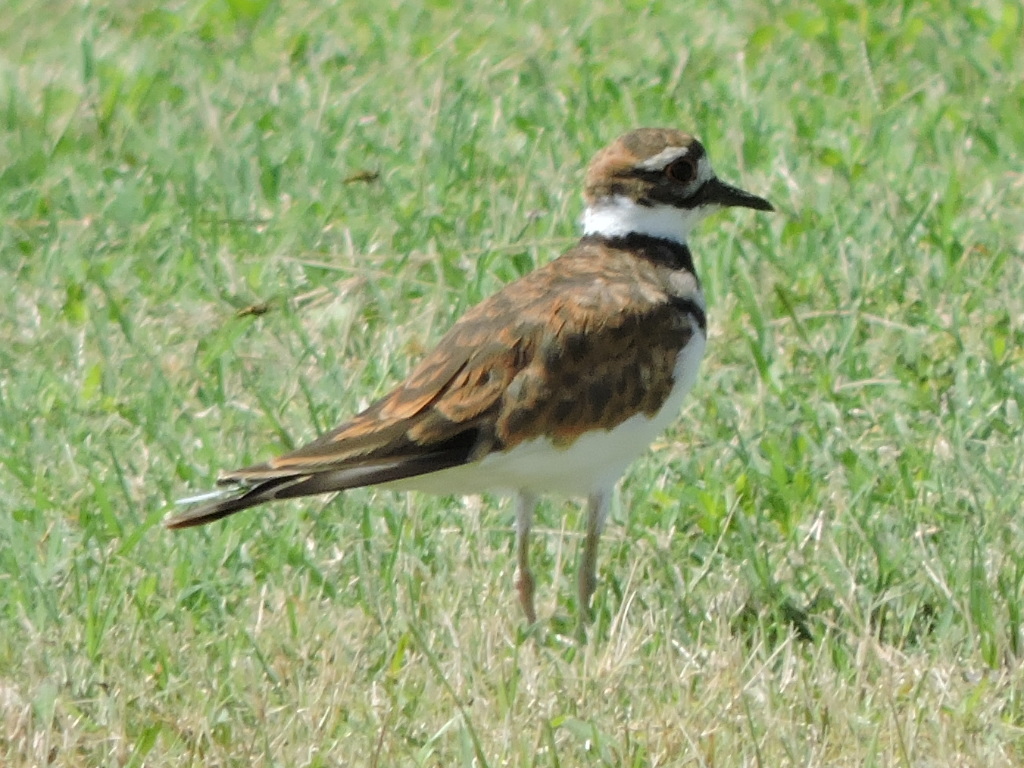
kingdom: Animalia
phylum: Chordata
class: Aves
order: Charadriiformes
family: Charadriidae
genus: Charadrius
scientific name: Charadrius vociferus
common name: Killdeer
